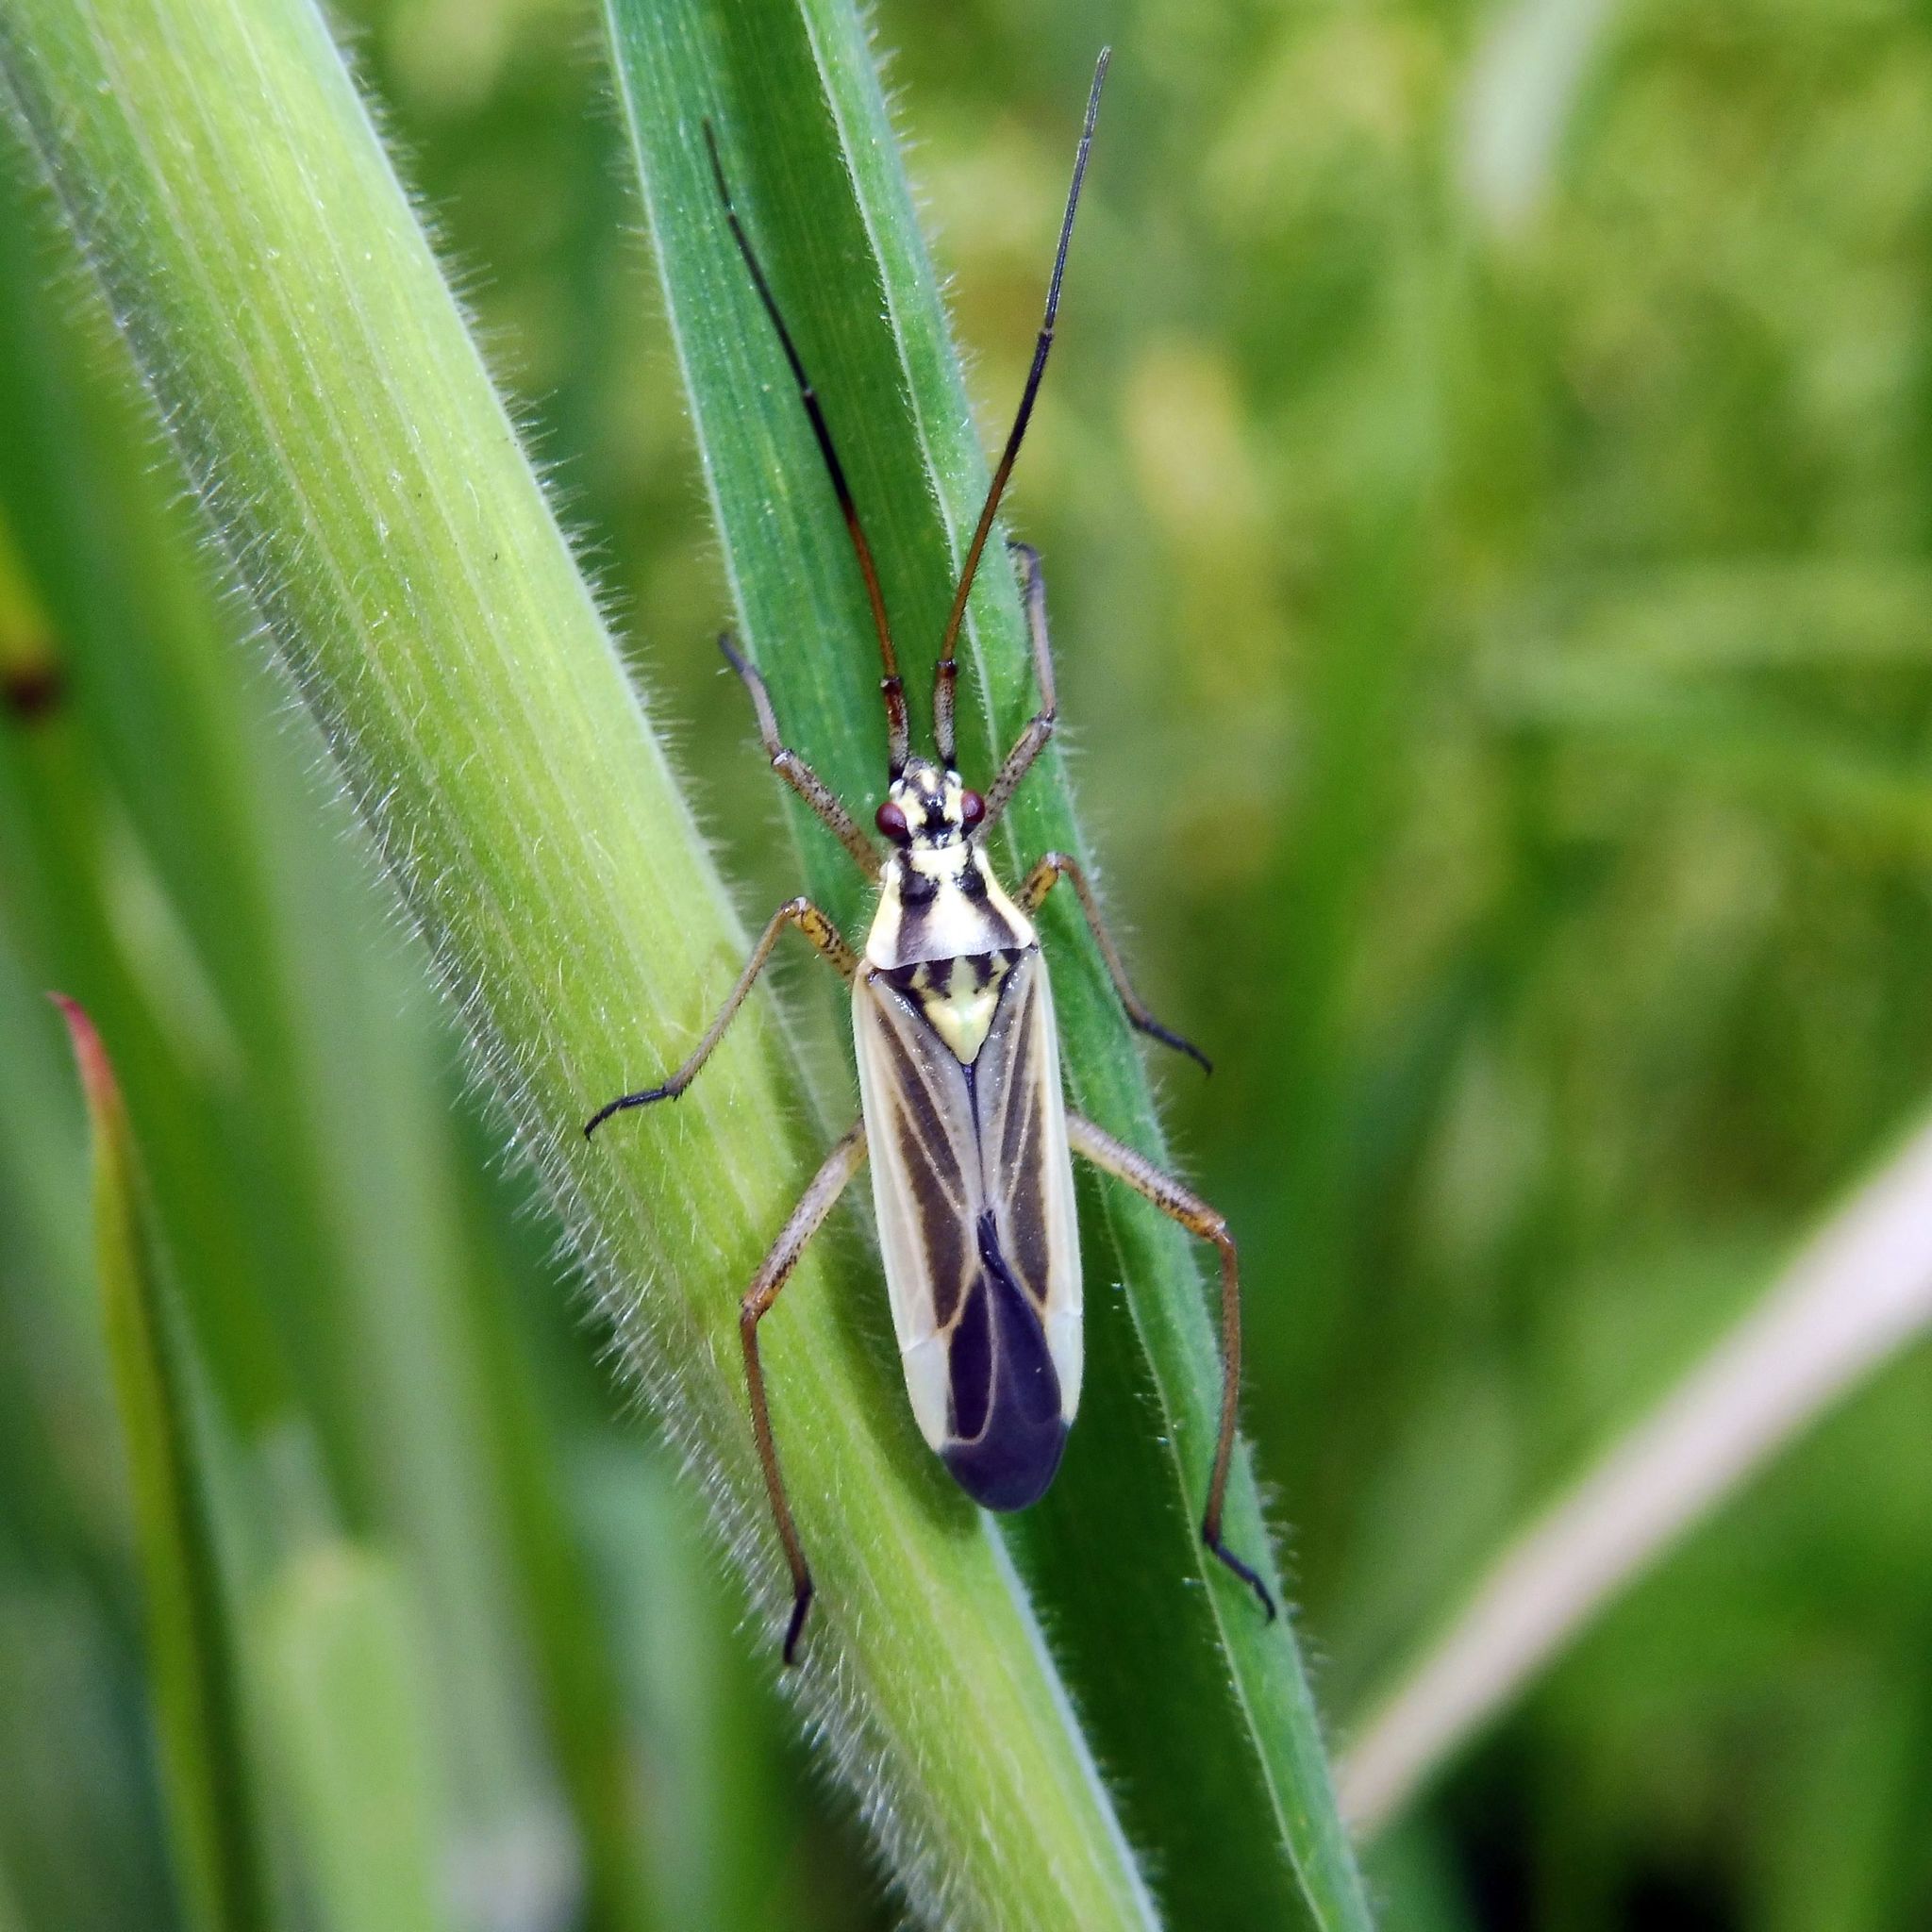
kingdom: Animalia
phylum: Arthropoda
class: Insecta
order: Hemiptera
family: Miridae
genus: Leptopterna
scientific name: Leptopterna dolabrata
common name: Meadow plant bug
